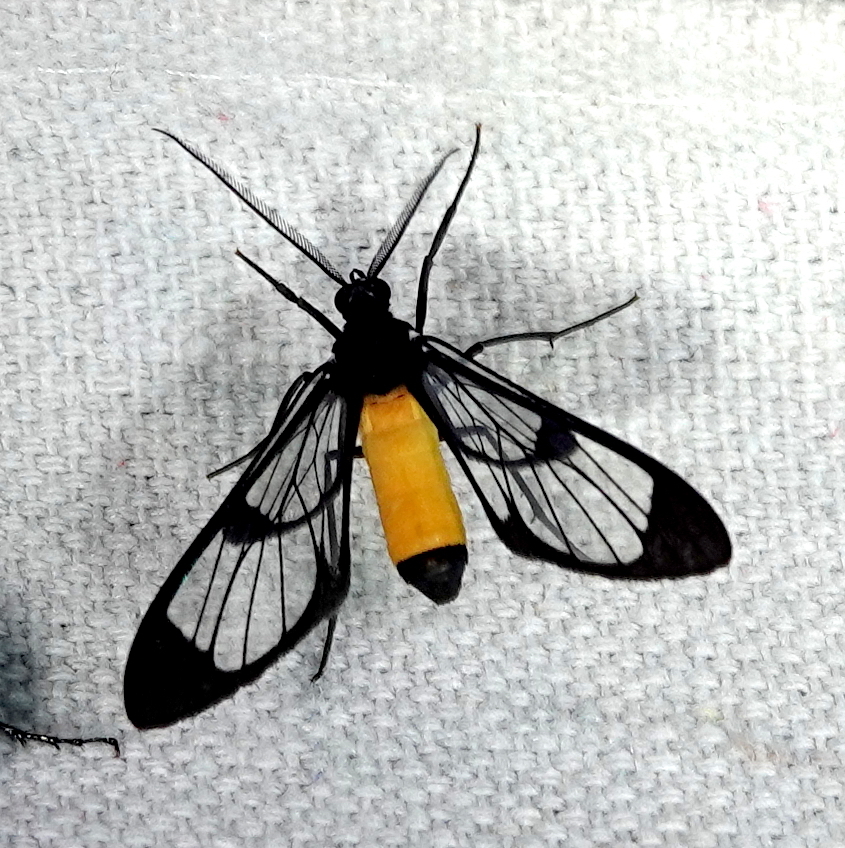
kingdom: Animalia
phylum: Arthropoda
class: Insecta
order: Lepidoptera
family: Erebidae
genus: Cosmosoma
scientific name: Cosmosoma stibosticta
